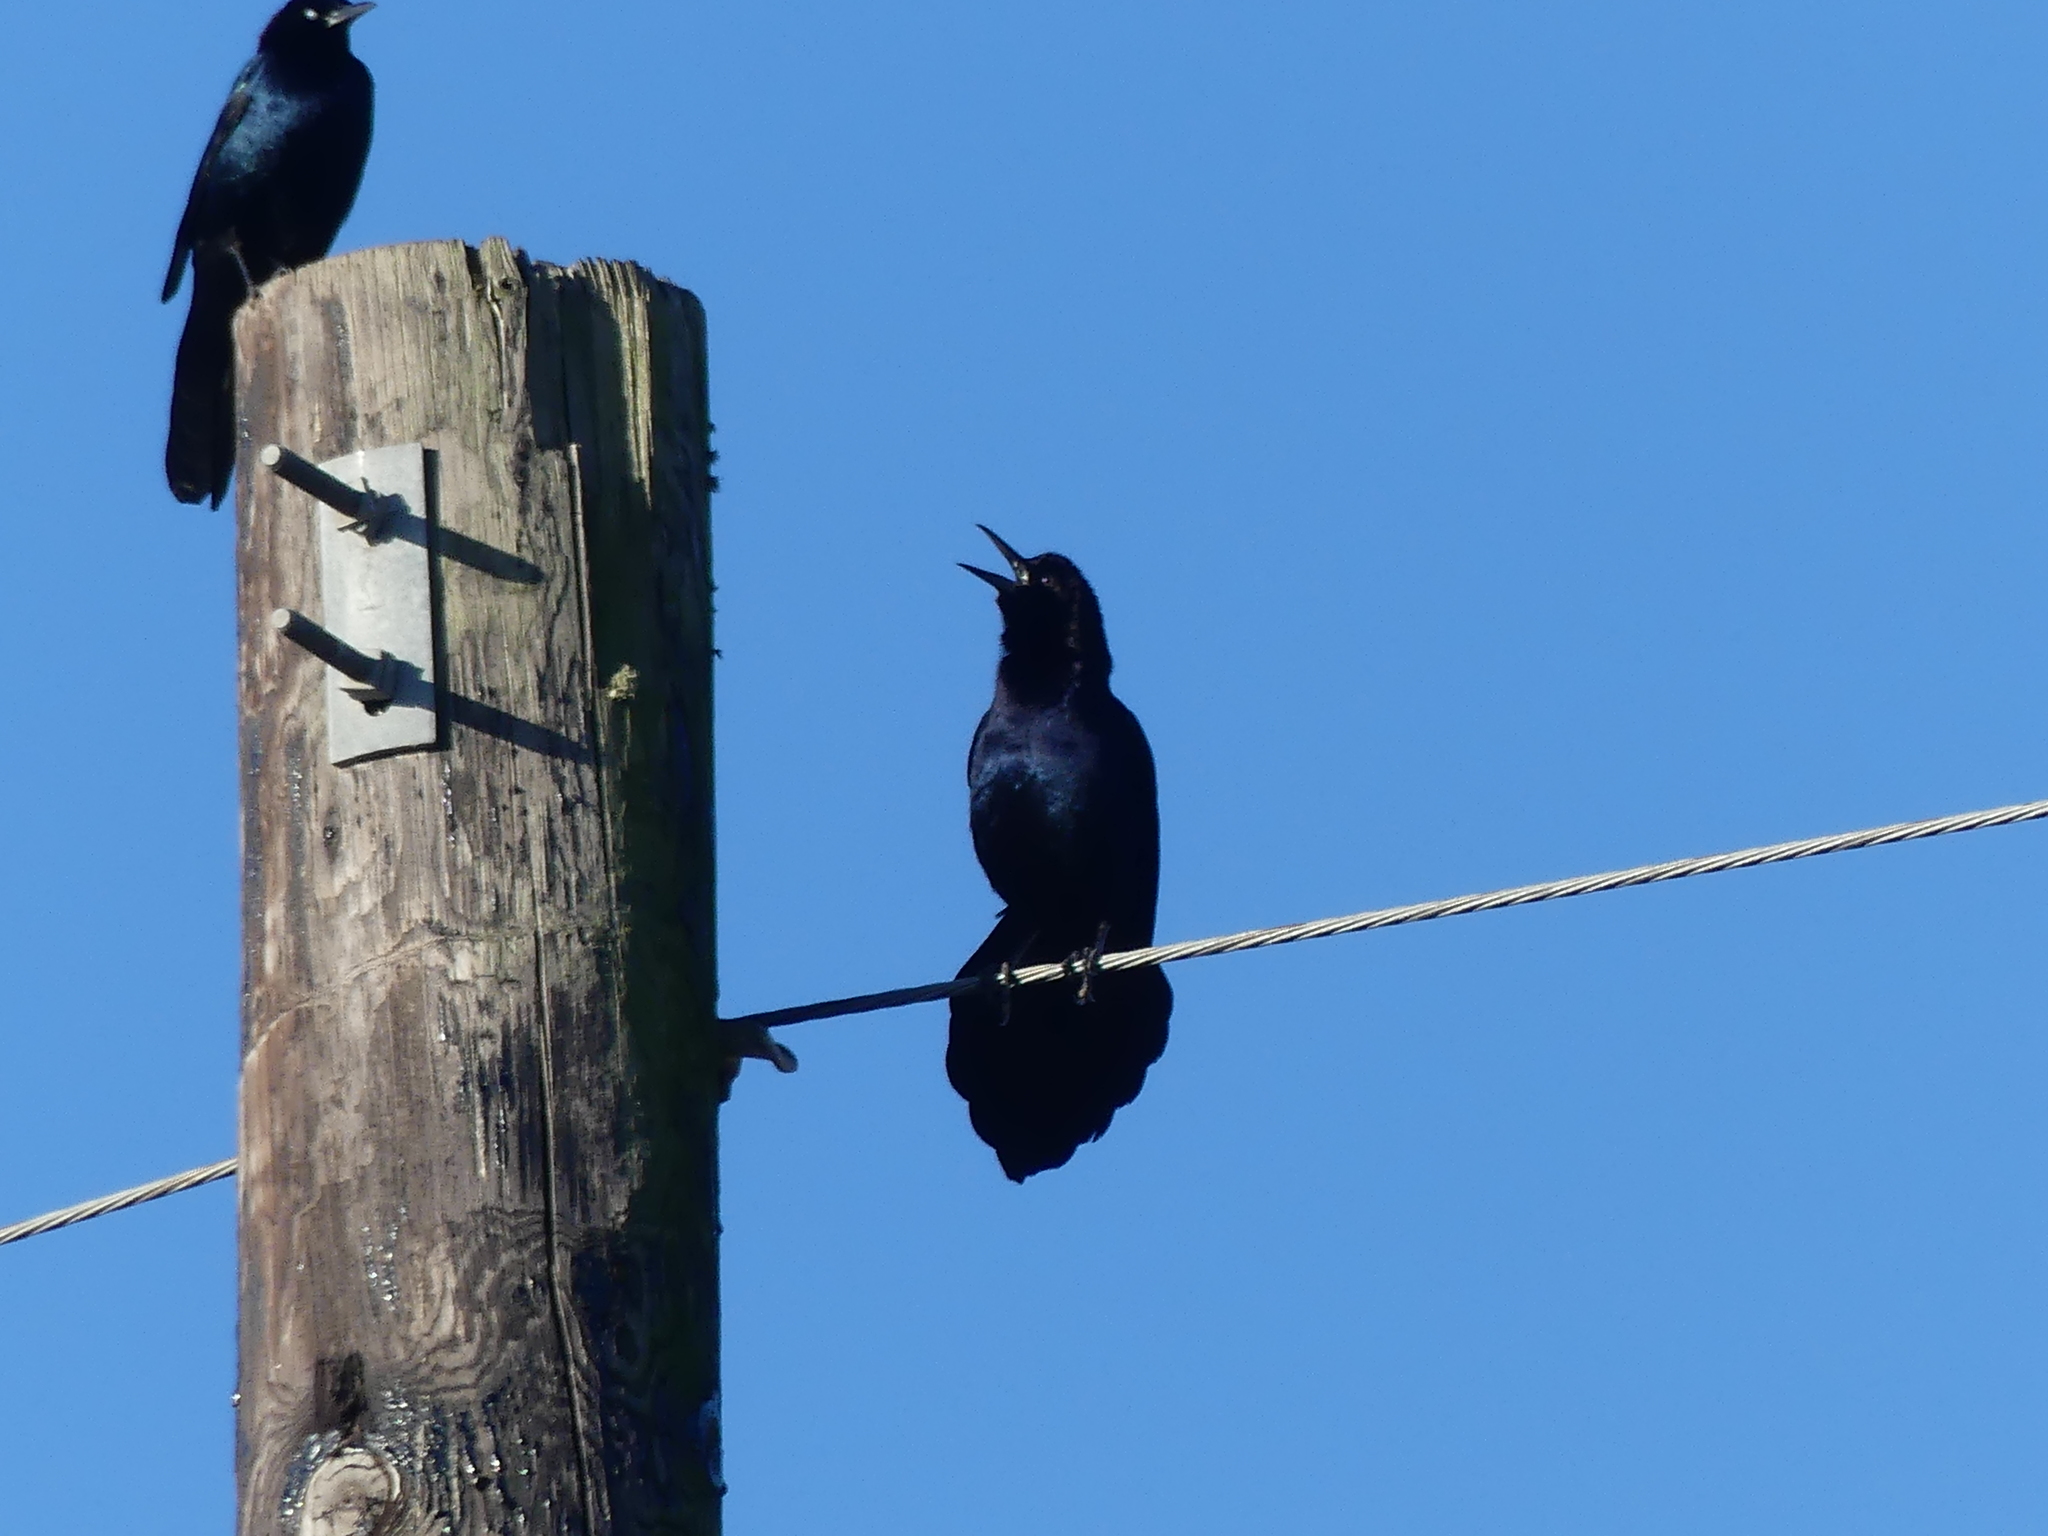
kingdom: Animalia
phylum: Chordata
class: Aves
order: Passeriformes
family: Icteridae
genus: Quiscalus
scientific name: Quiscalus major
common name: Boat-tailed grackle
